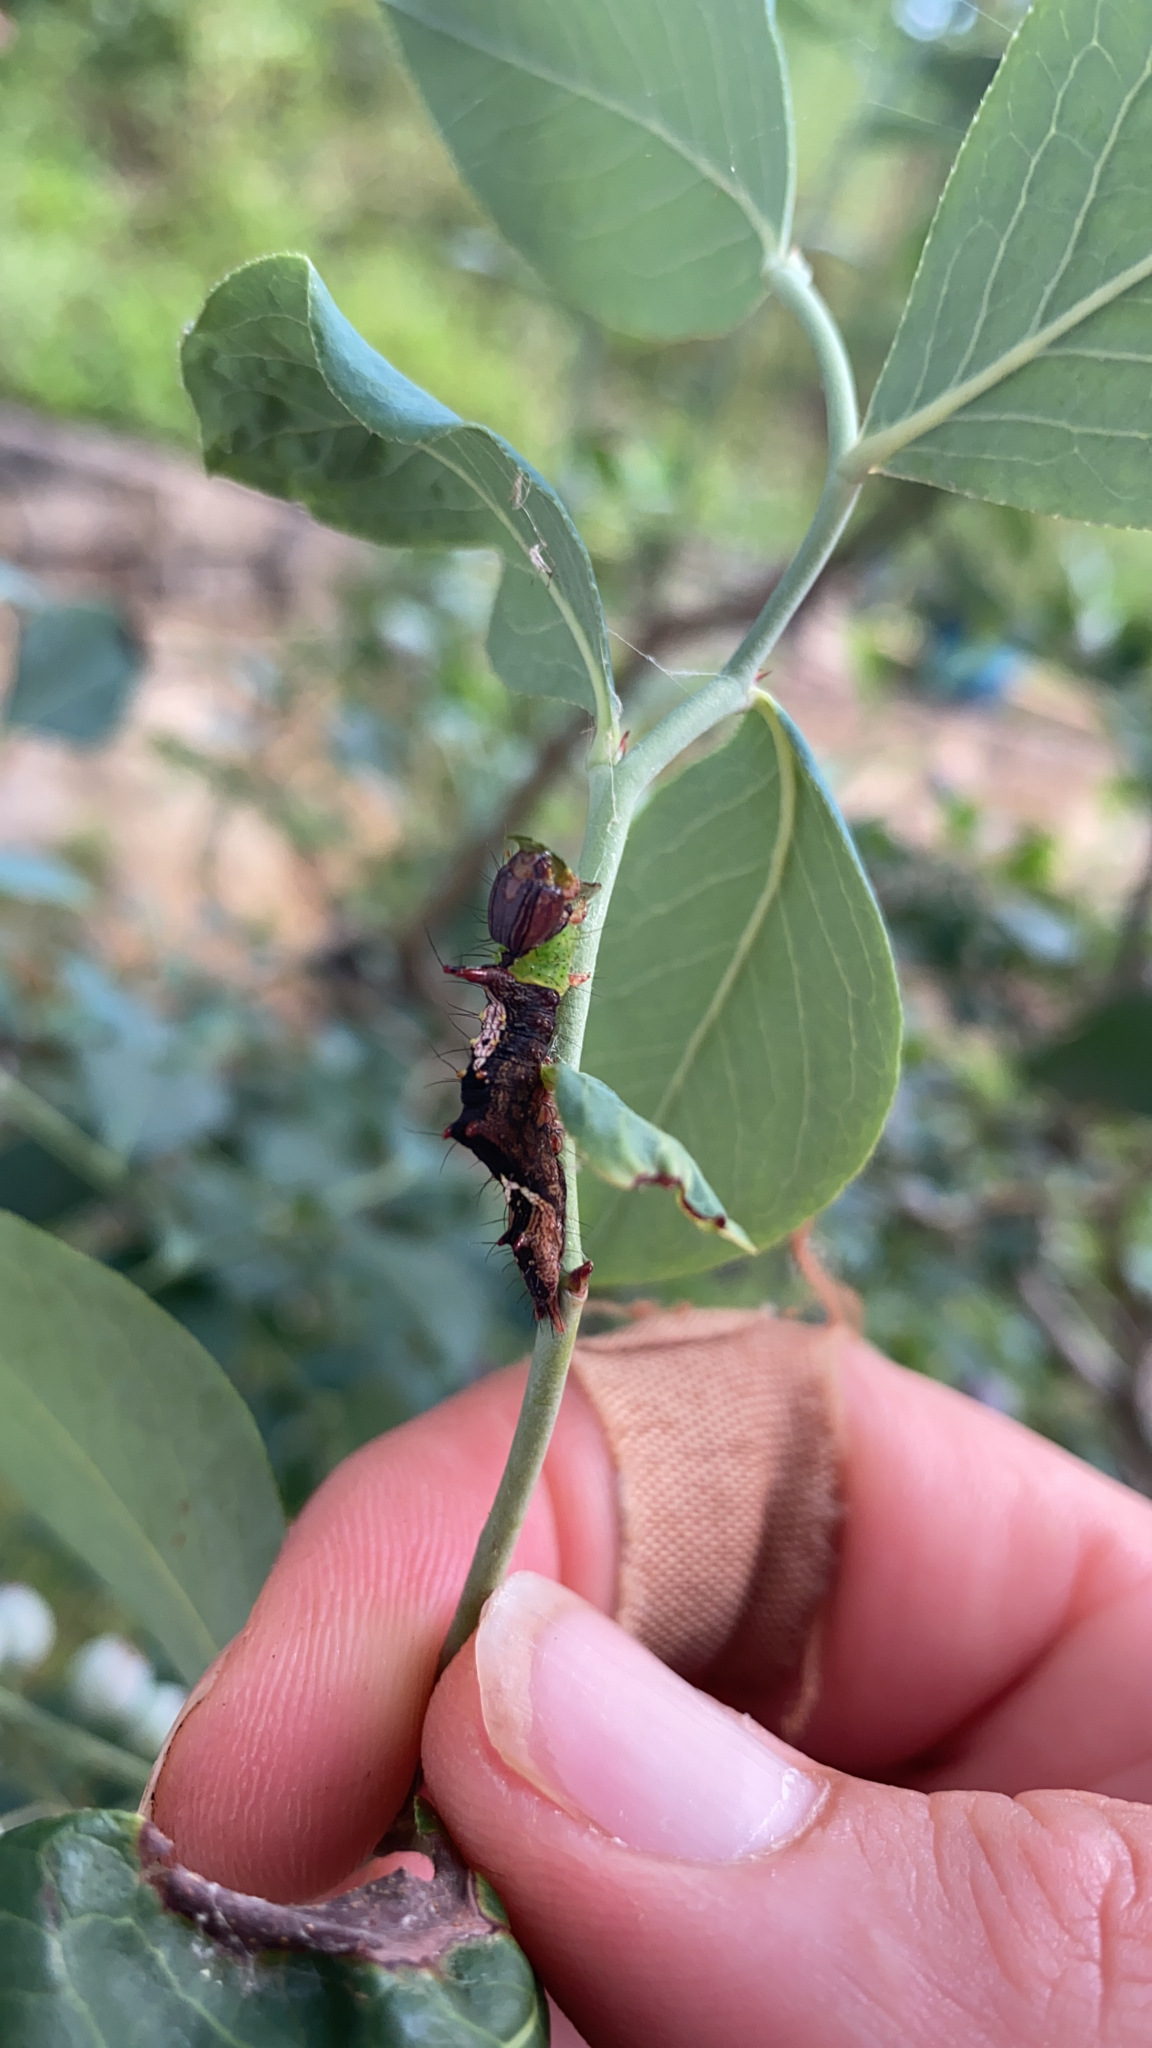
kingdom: Animalia
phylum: Arthropoda
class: Insecta
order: Lepidoptera
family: Notodontidae
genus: Schizura
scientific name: Schizura ipomaeae
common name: Morning-glory prominent
